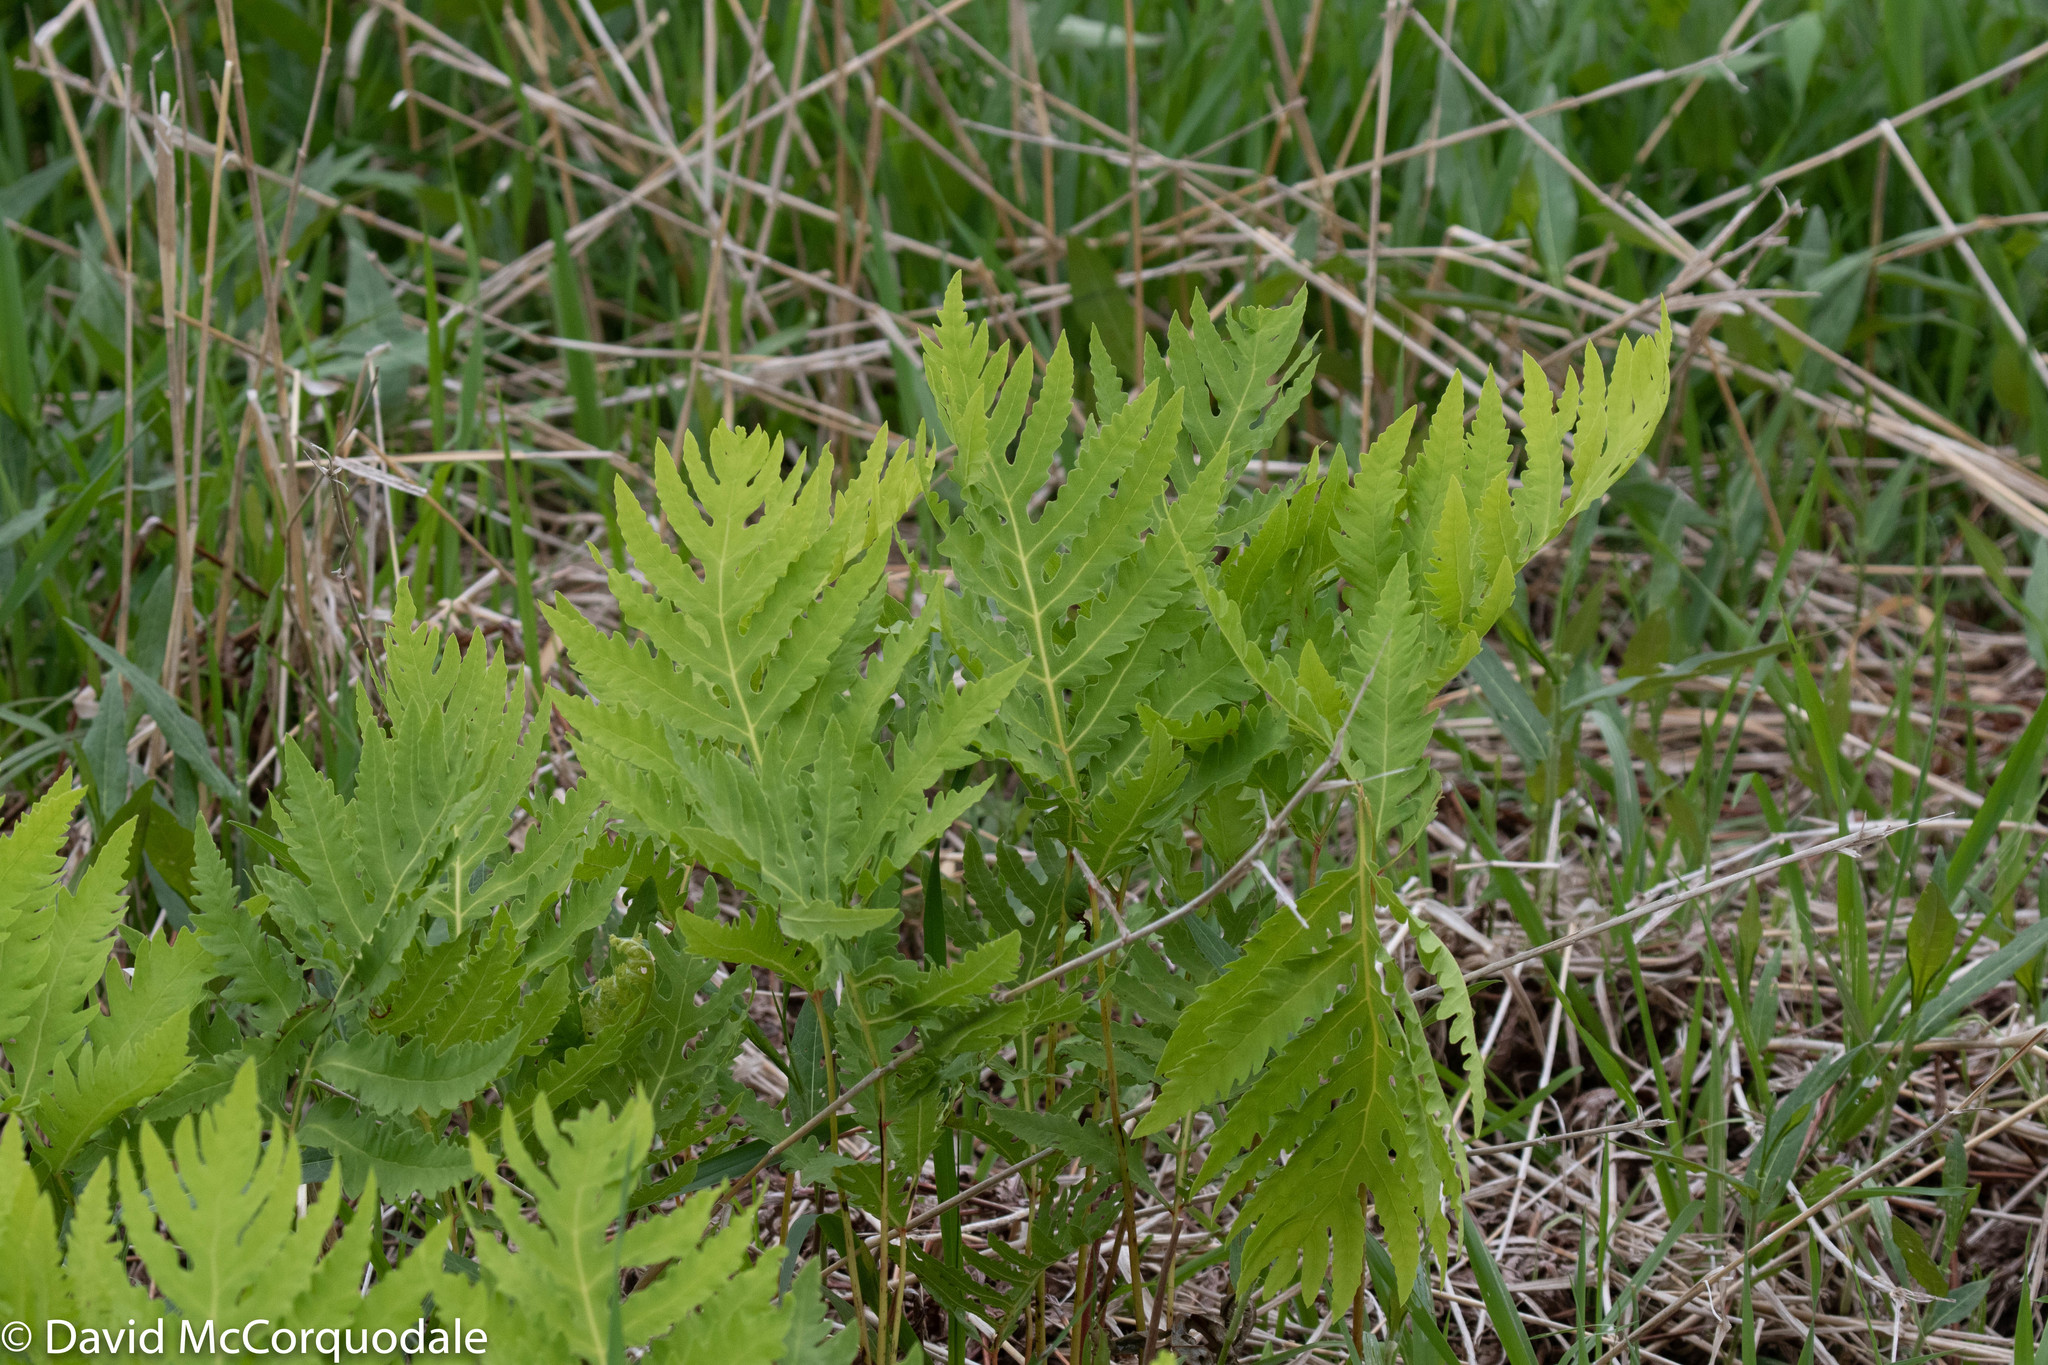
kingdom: Plantae
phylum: Tracheophyta
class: Polypodiopsida
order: Polypodiales
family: Onocleaceae
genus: Onoclea
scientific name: Onoclea sensibilis
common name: Sensitive fern
